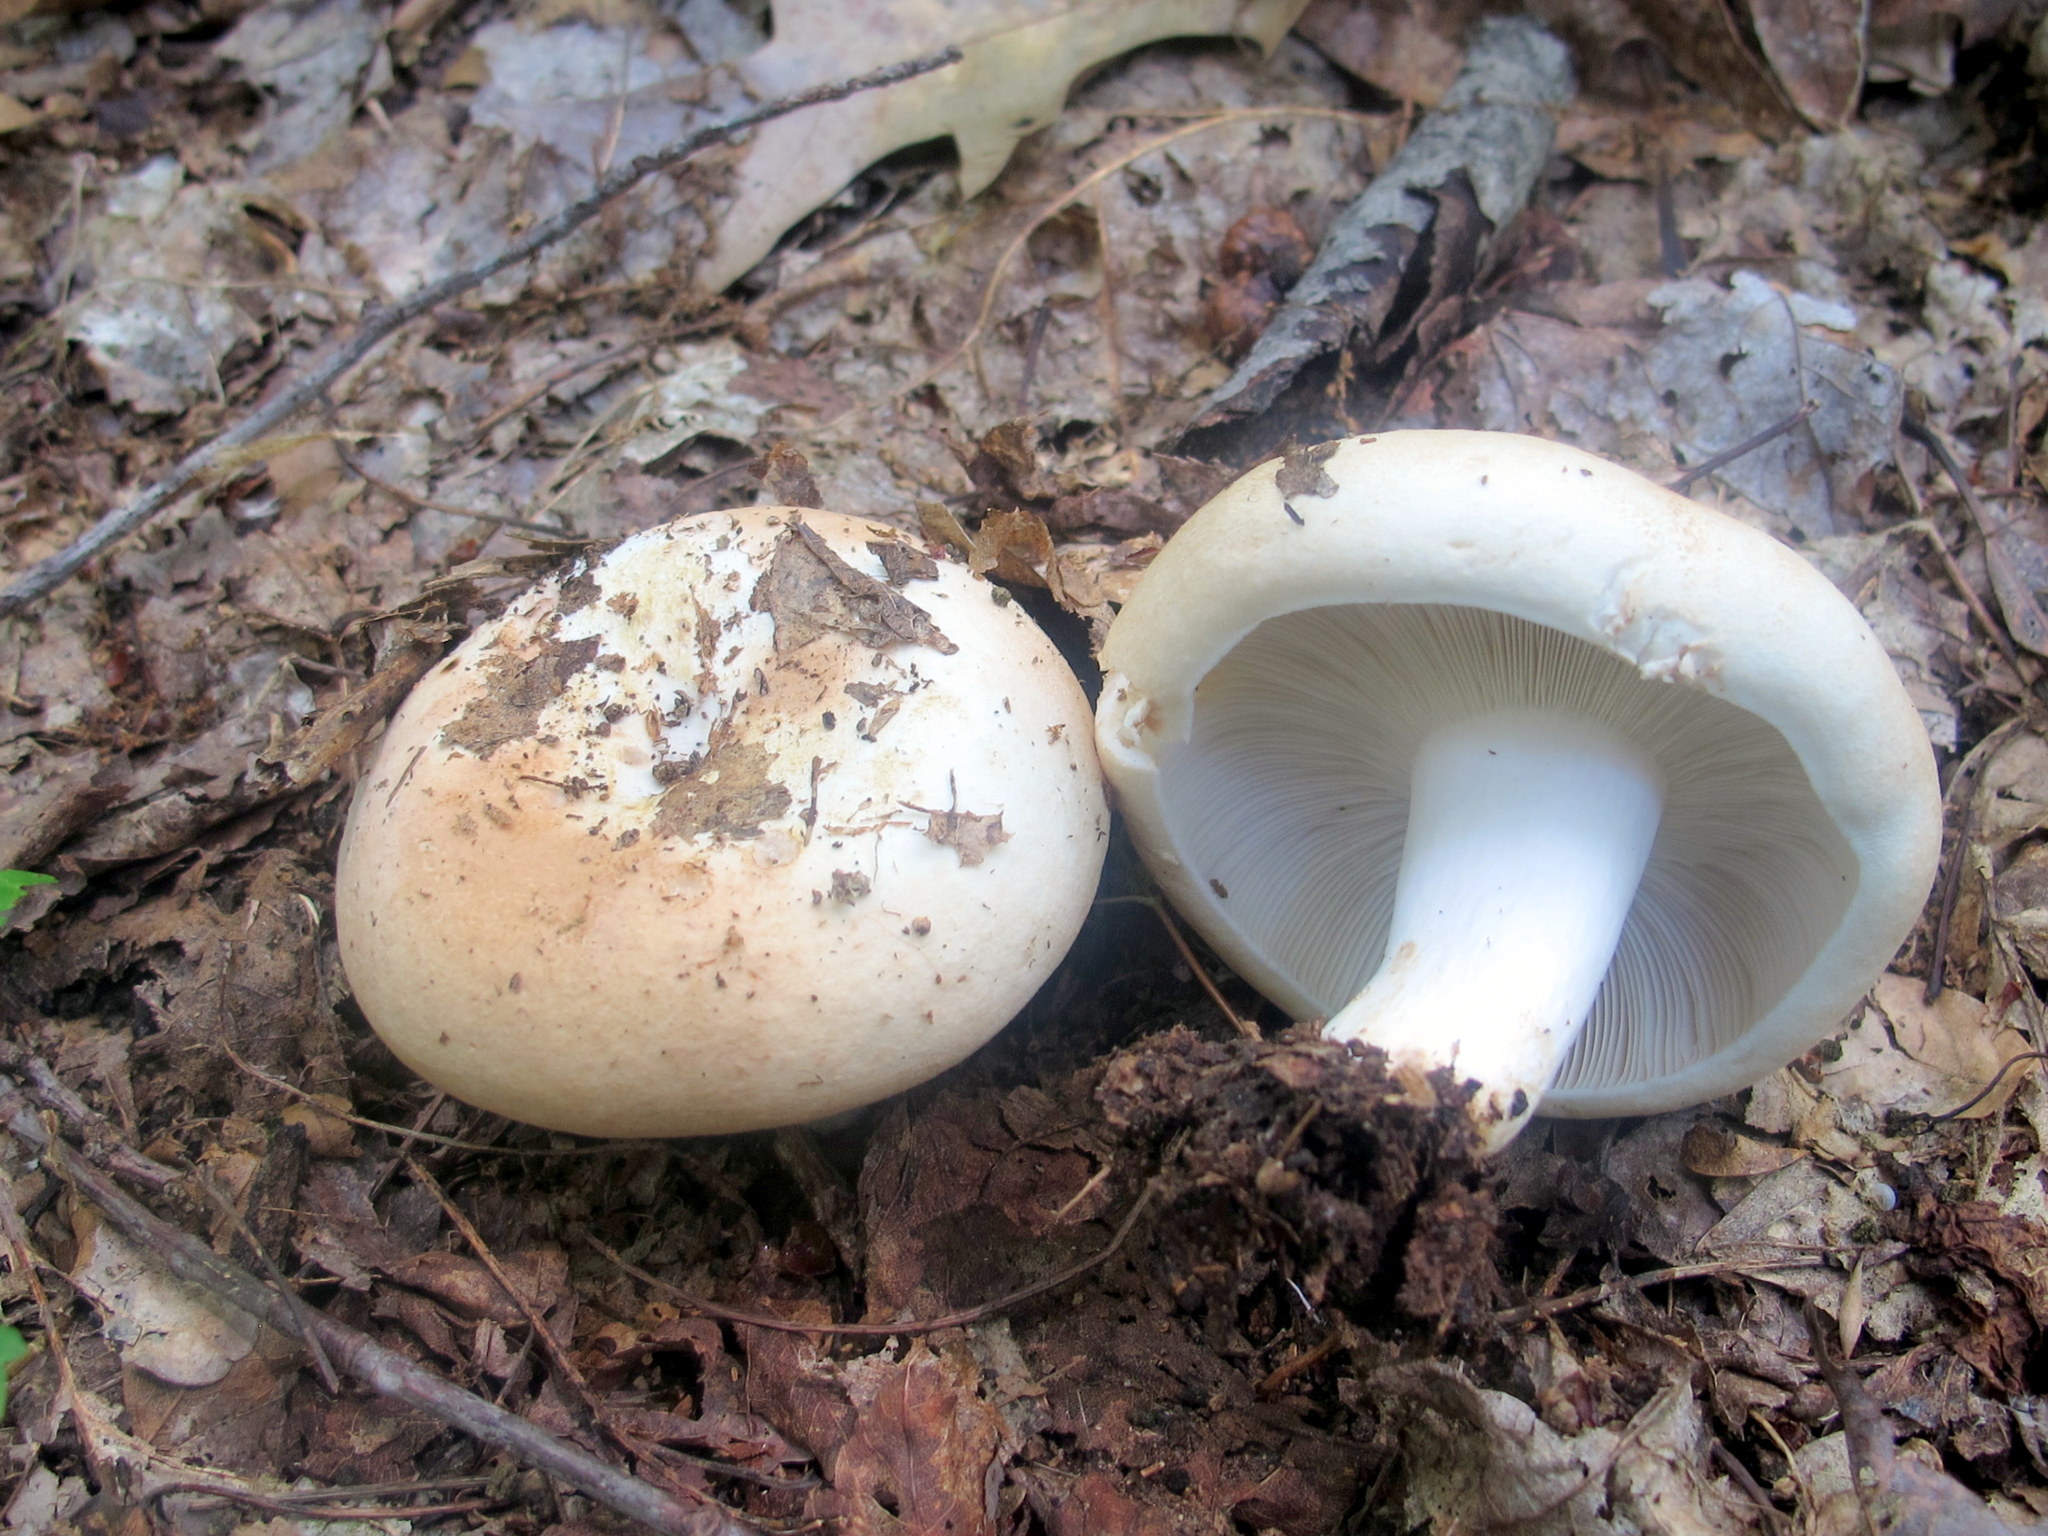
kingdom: Fungi
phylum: Basidiomycota
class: Agaricomycetes
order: Russulales
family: Russulaceae
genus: Russula
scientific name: Russula compacta
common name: Fishbiscuit russula
